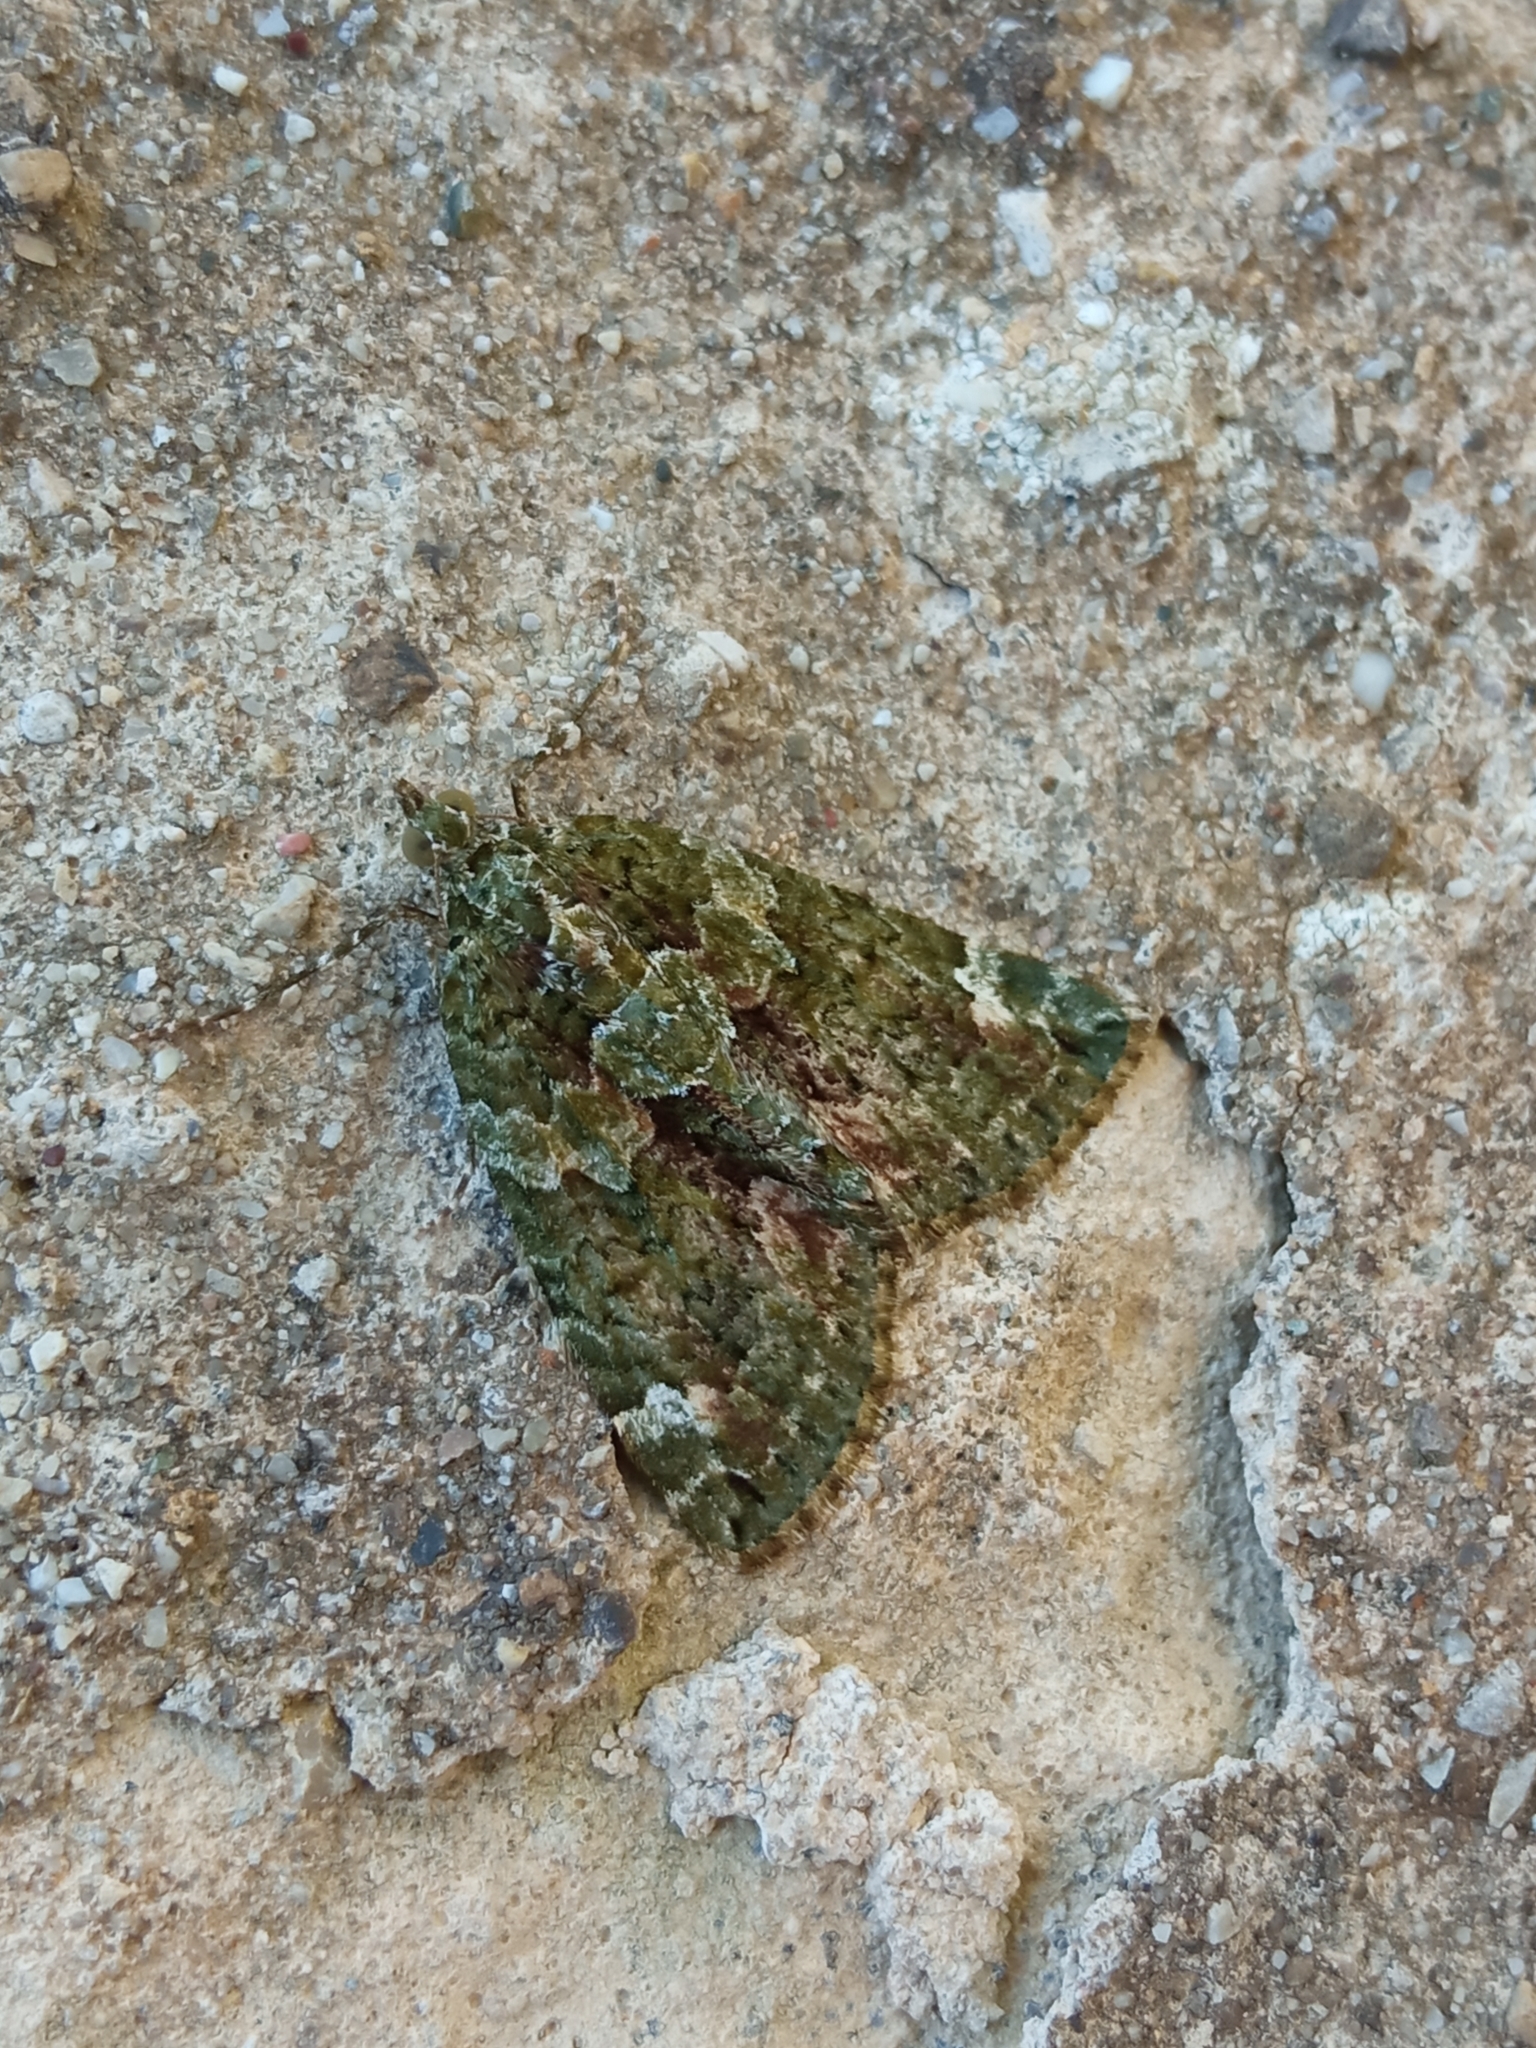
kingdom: Animalia
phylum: Arthropoda
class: Insecta
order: Lepidoptera
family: Geometridae
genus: Chloroclysta
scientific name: Chloroclysta siterata
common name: Red-green carpet
